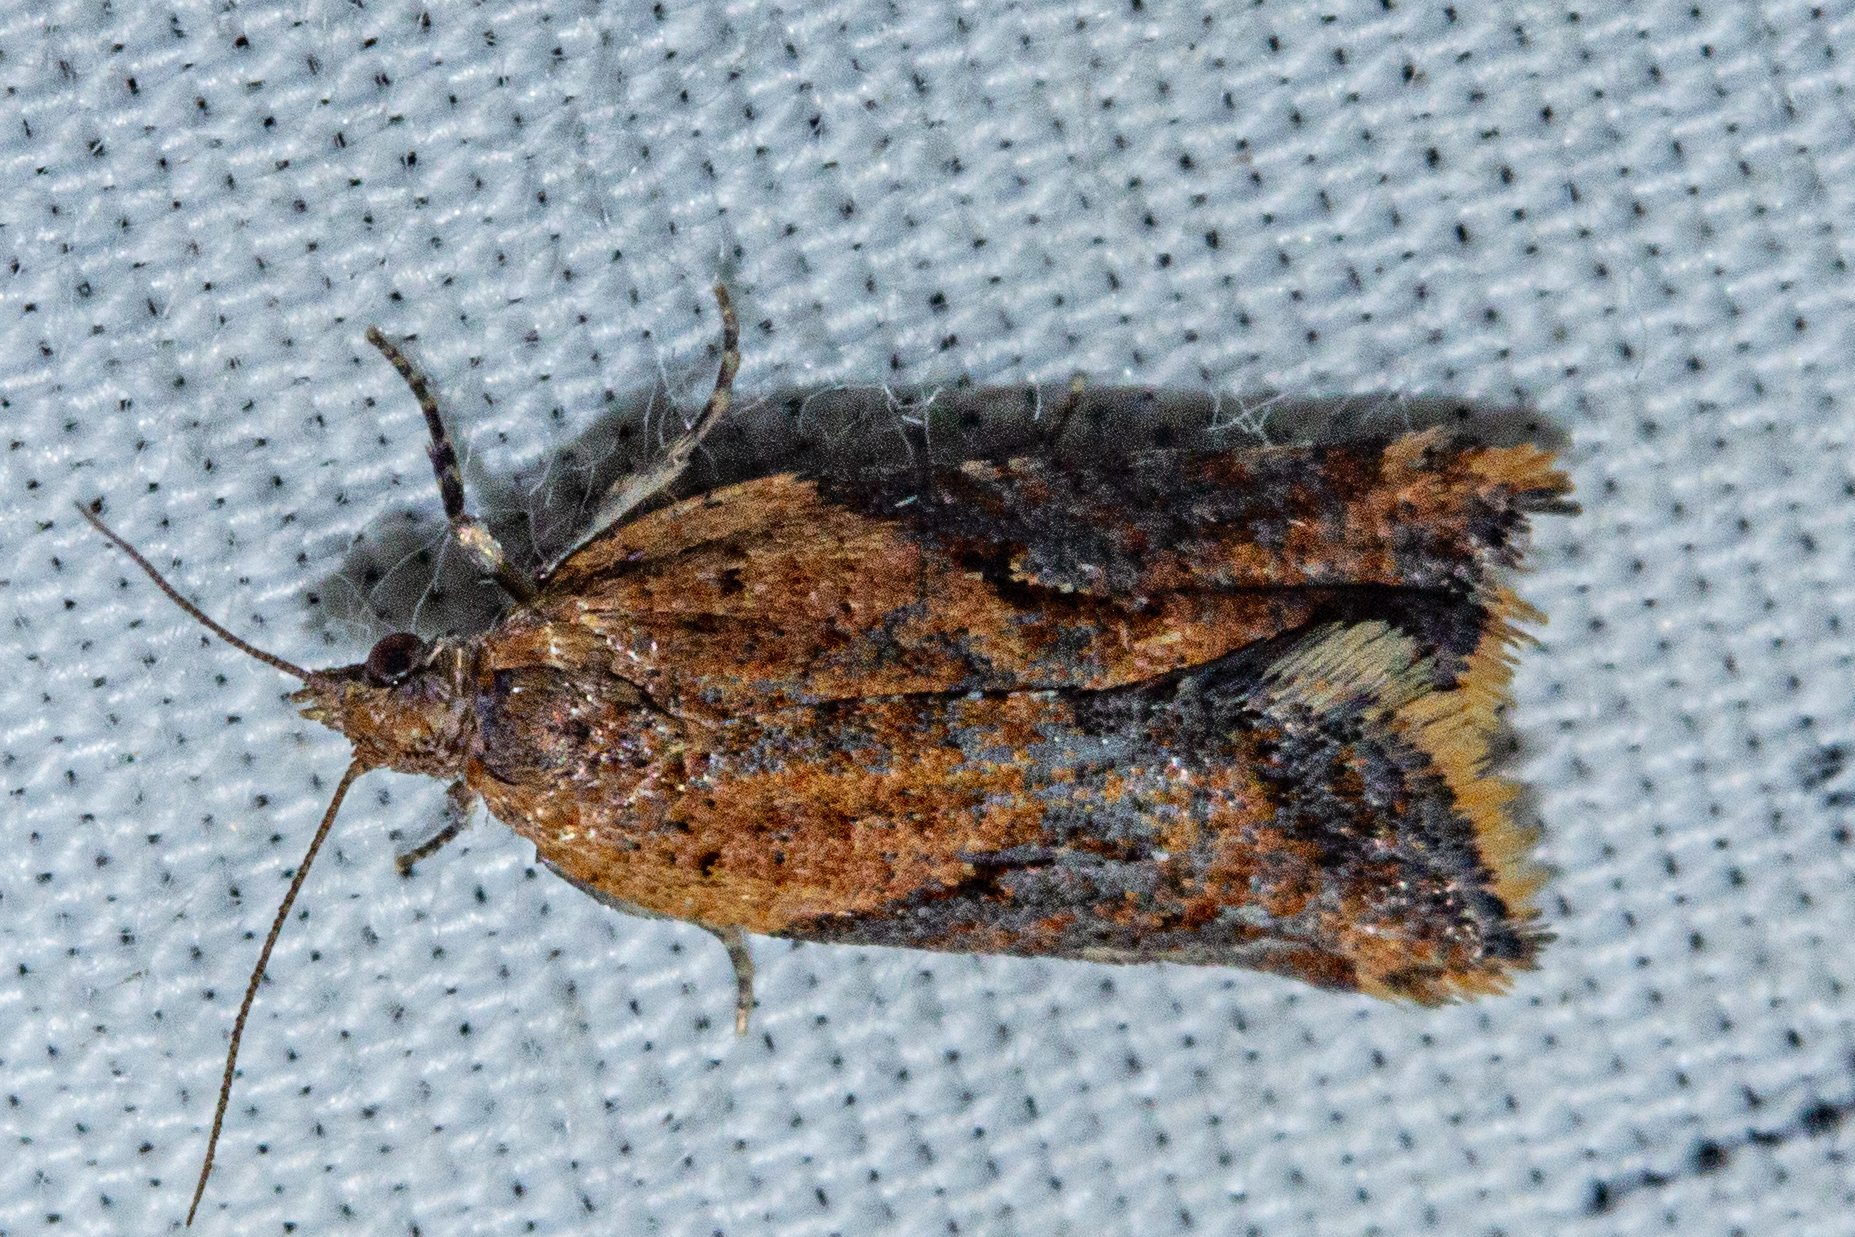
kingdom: Animalia
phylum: Arthropoda
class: Insecta
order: Lepidoptera
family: Tortricidae
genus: Capua
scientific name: Capua semiferana
